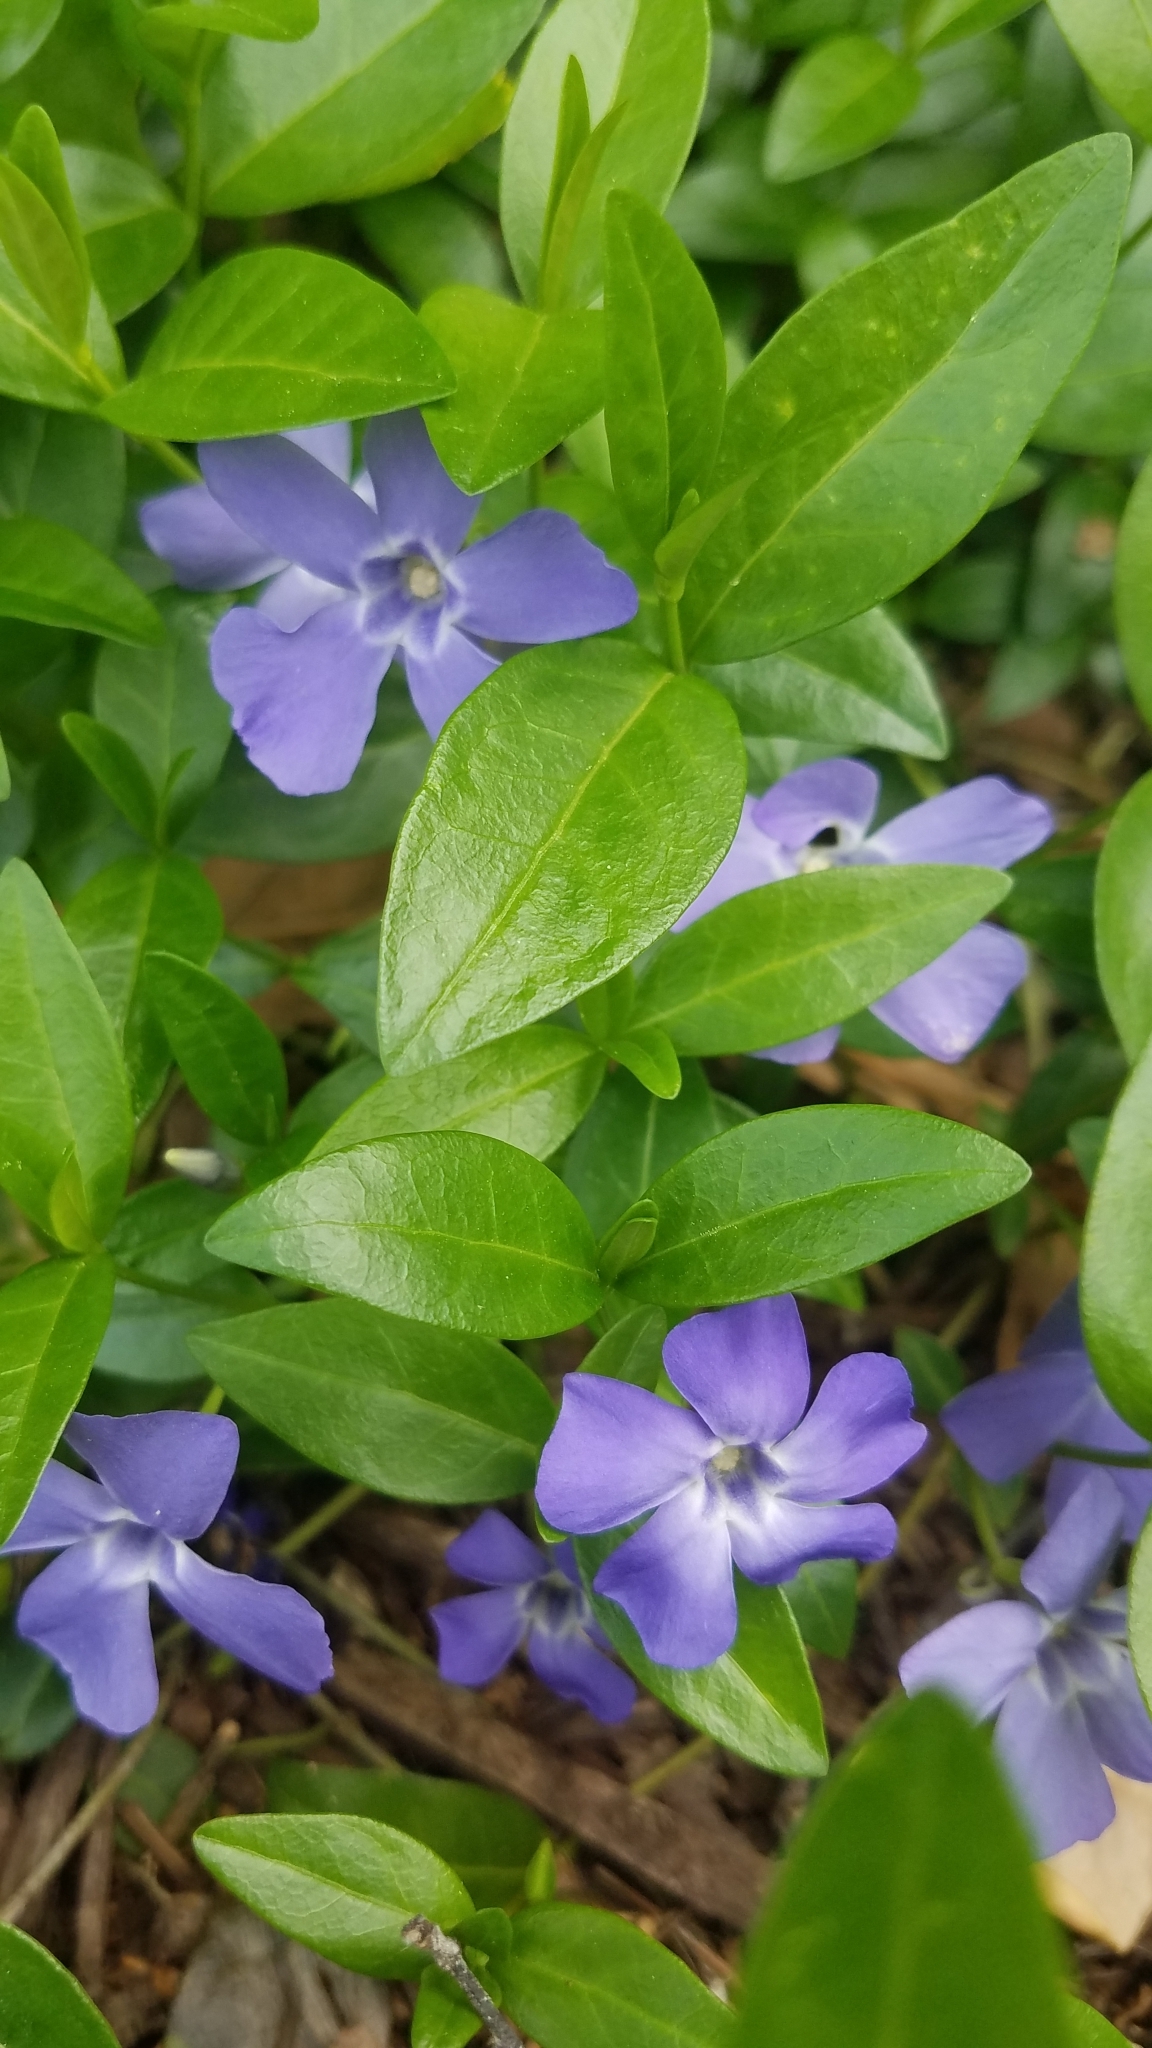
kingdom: Plantae
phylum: Tracheophyta
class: Magnoliopsida
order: Gentianales
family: Apocynaceae
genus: Vinca
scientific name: Vinca minor
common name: Lesser periwinkle
